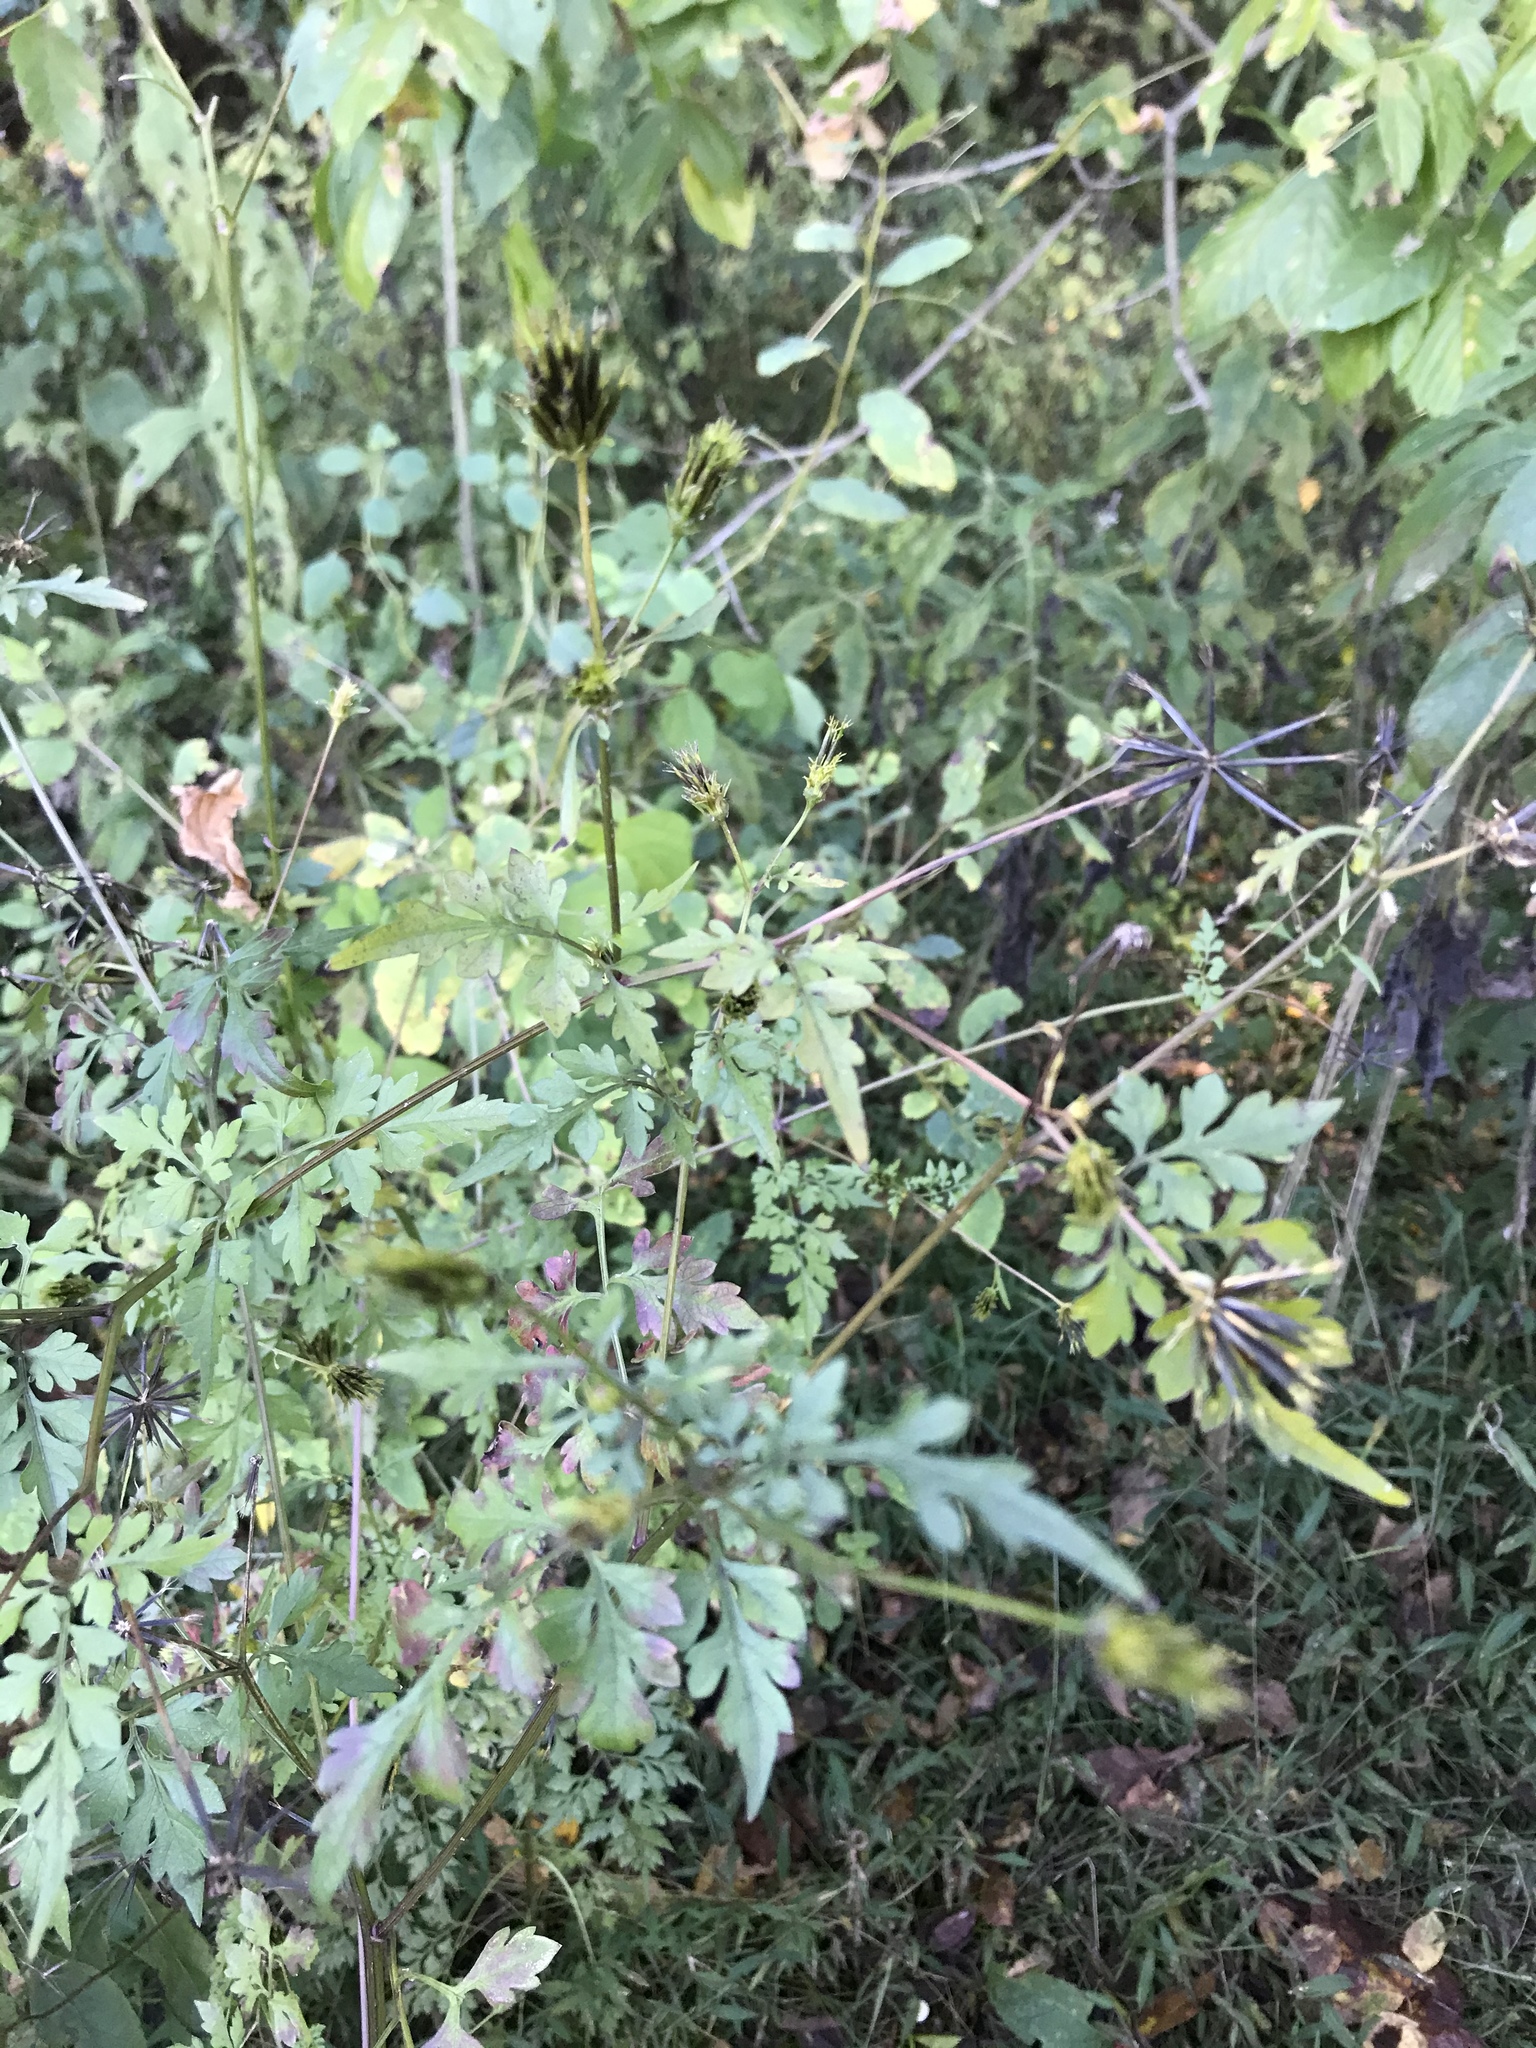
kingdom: Plantae
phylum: Tracheophyta
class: Magnoliopsida
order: Asterales
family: Asteraceae
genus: Bidens
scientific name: Bidens bipinnata
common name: Spanish-needles
